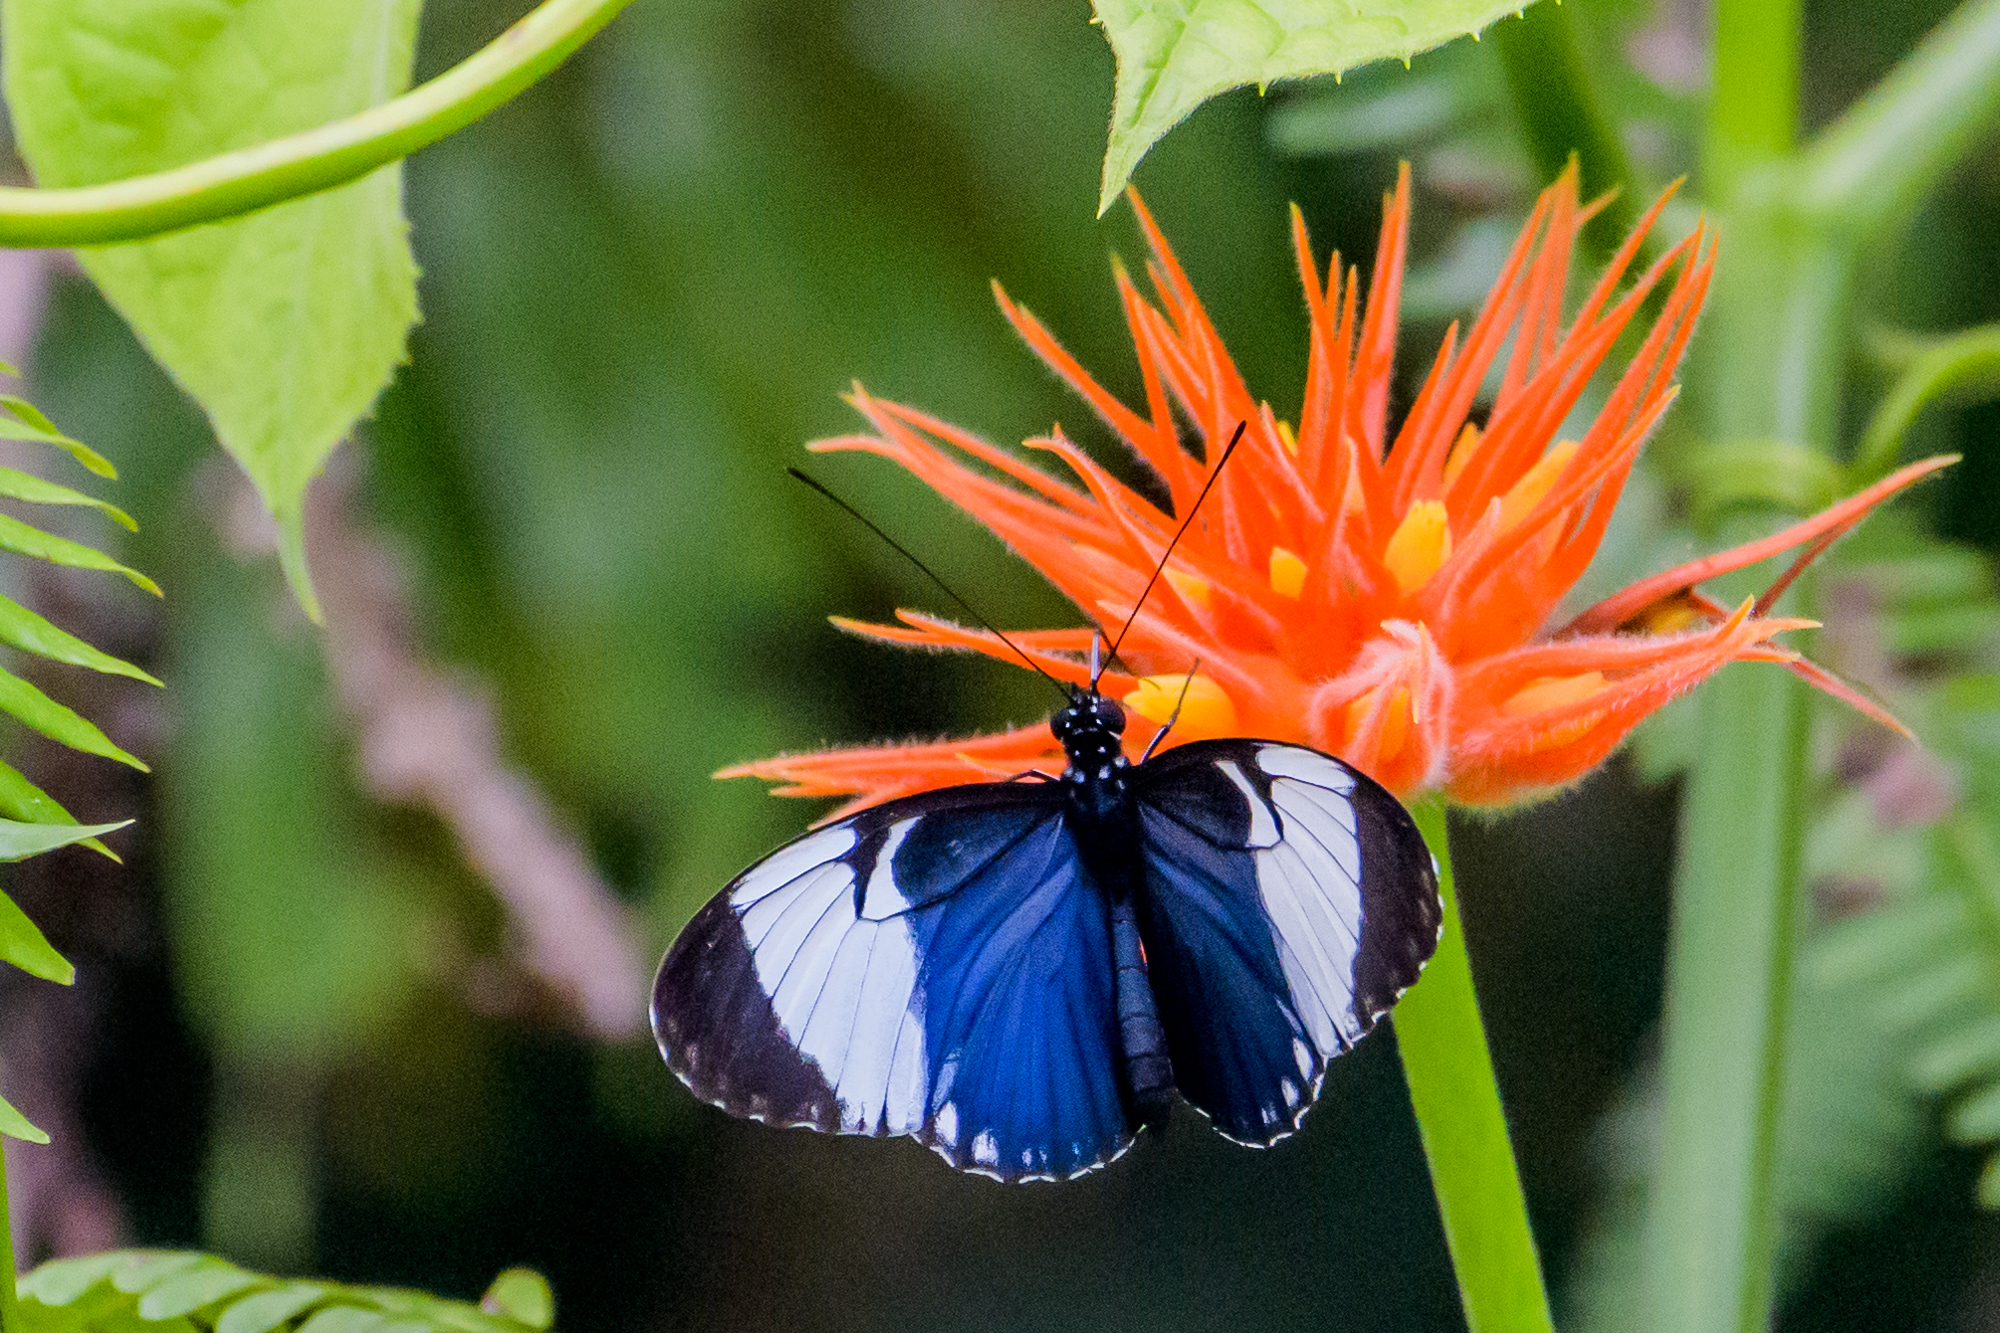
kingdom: Animalia
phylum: Arthropoda
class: Insecta
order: Lepidoptera
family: Nymphalidae
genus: Heliconius
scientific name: Heliconius cydno
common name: Cydno longwing
